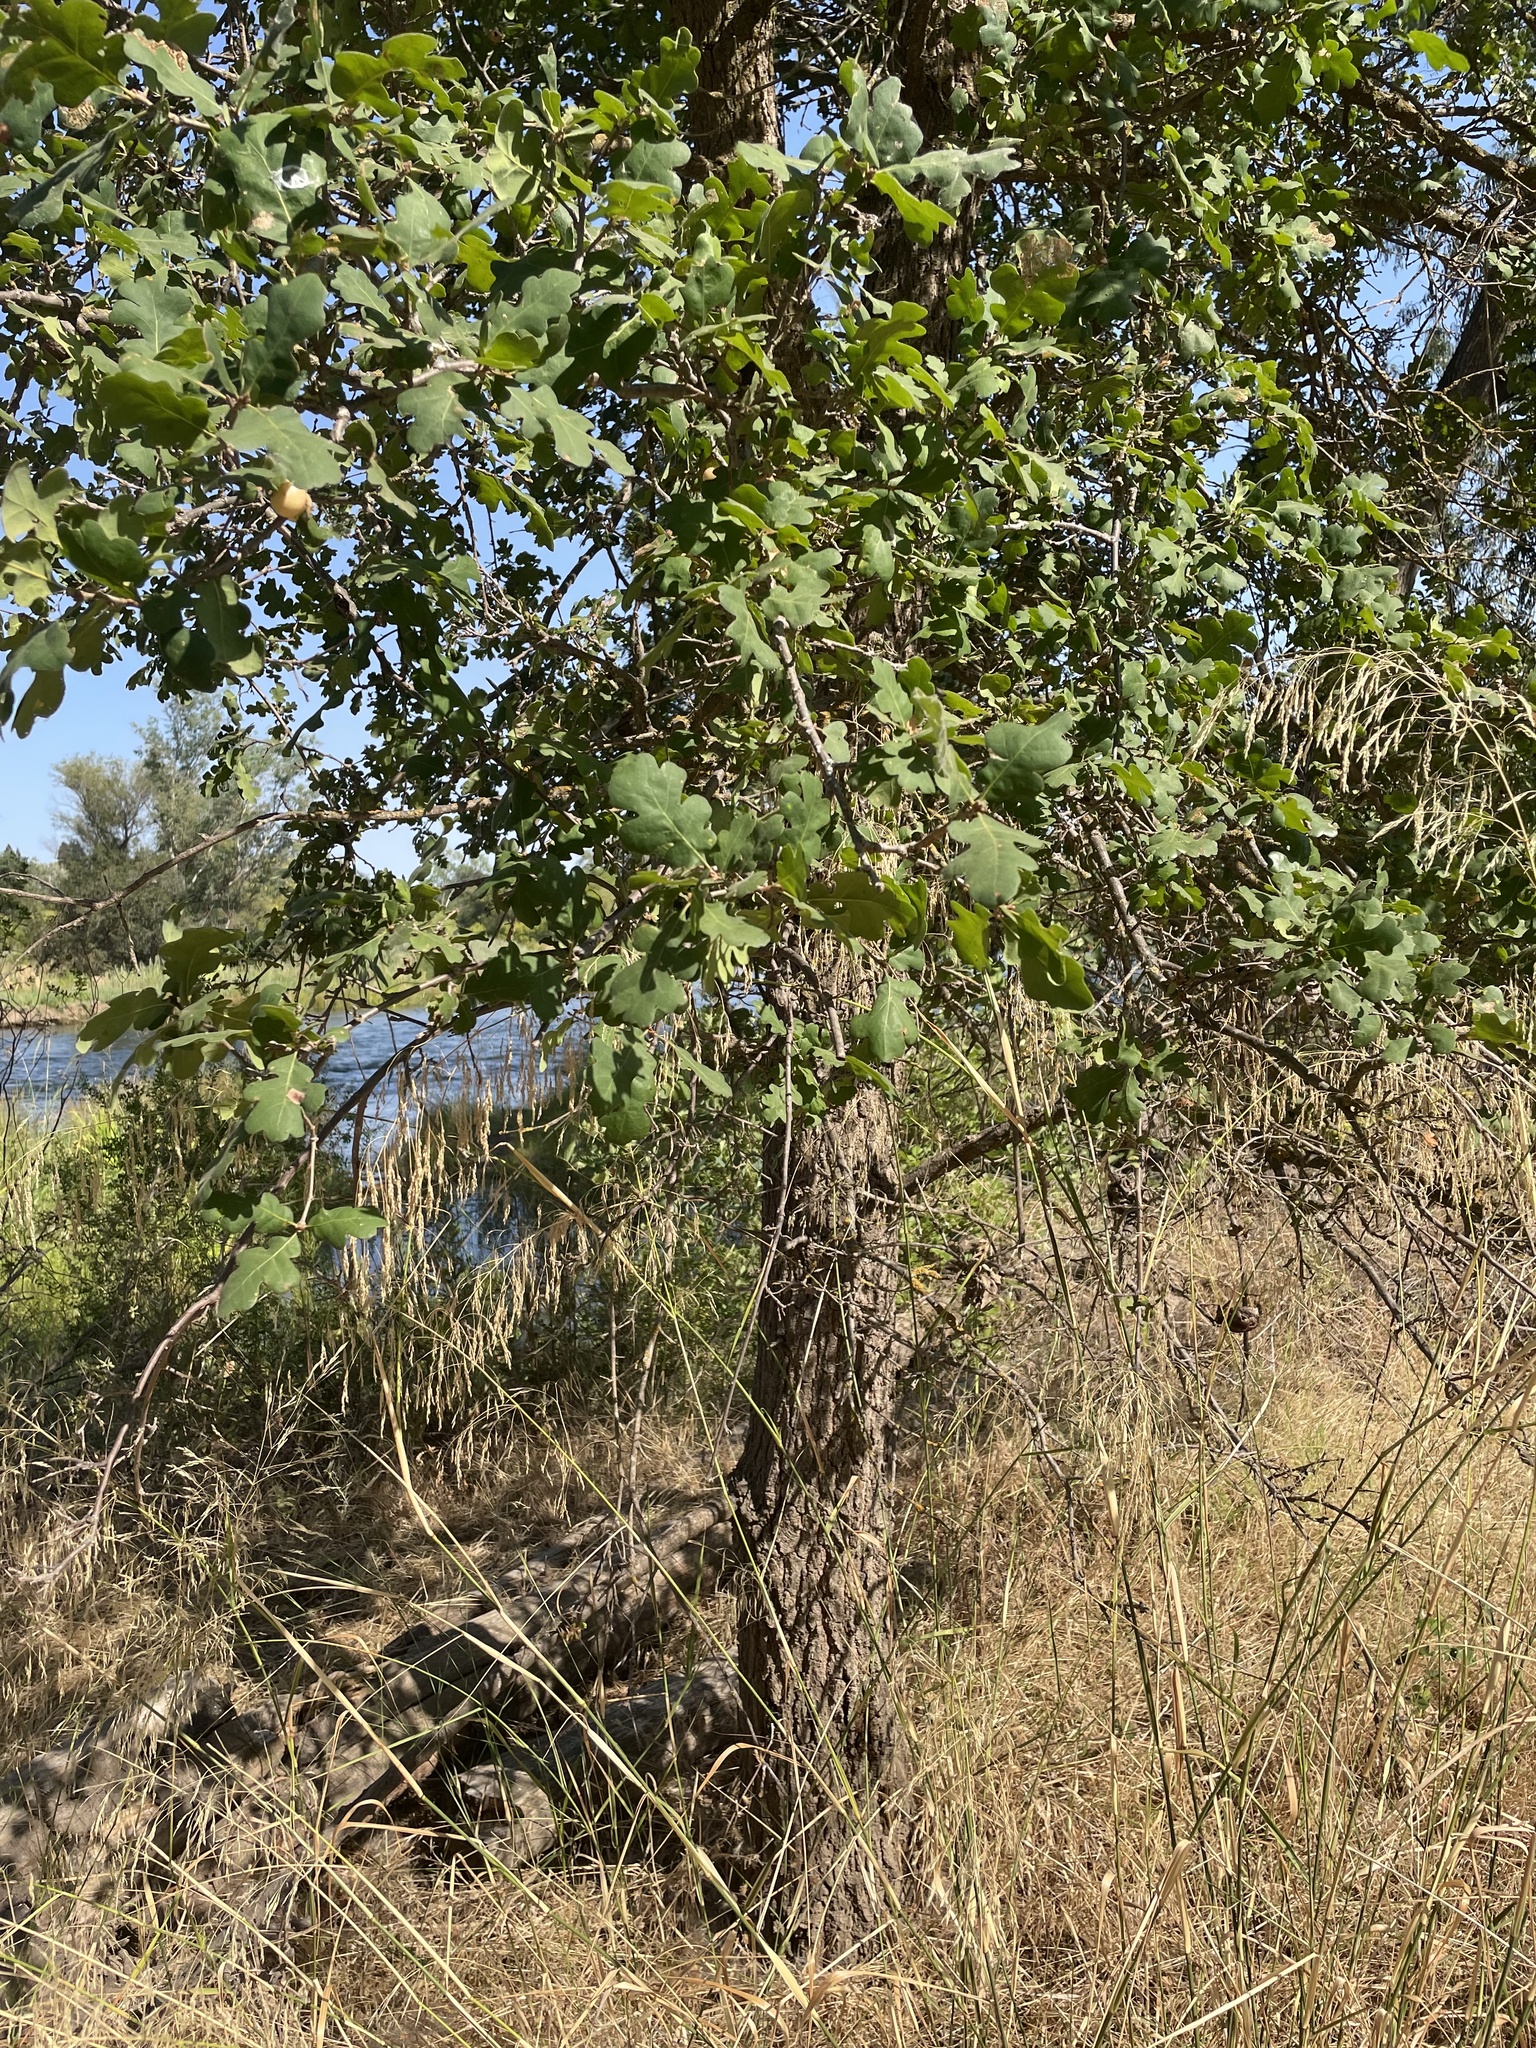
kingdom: Plantae
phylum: Tracheophyta
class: Magnoliopsida
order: Fagales
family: Fagaceae
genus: Quercus
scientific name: Quercus lobata
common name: Valley oak
